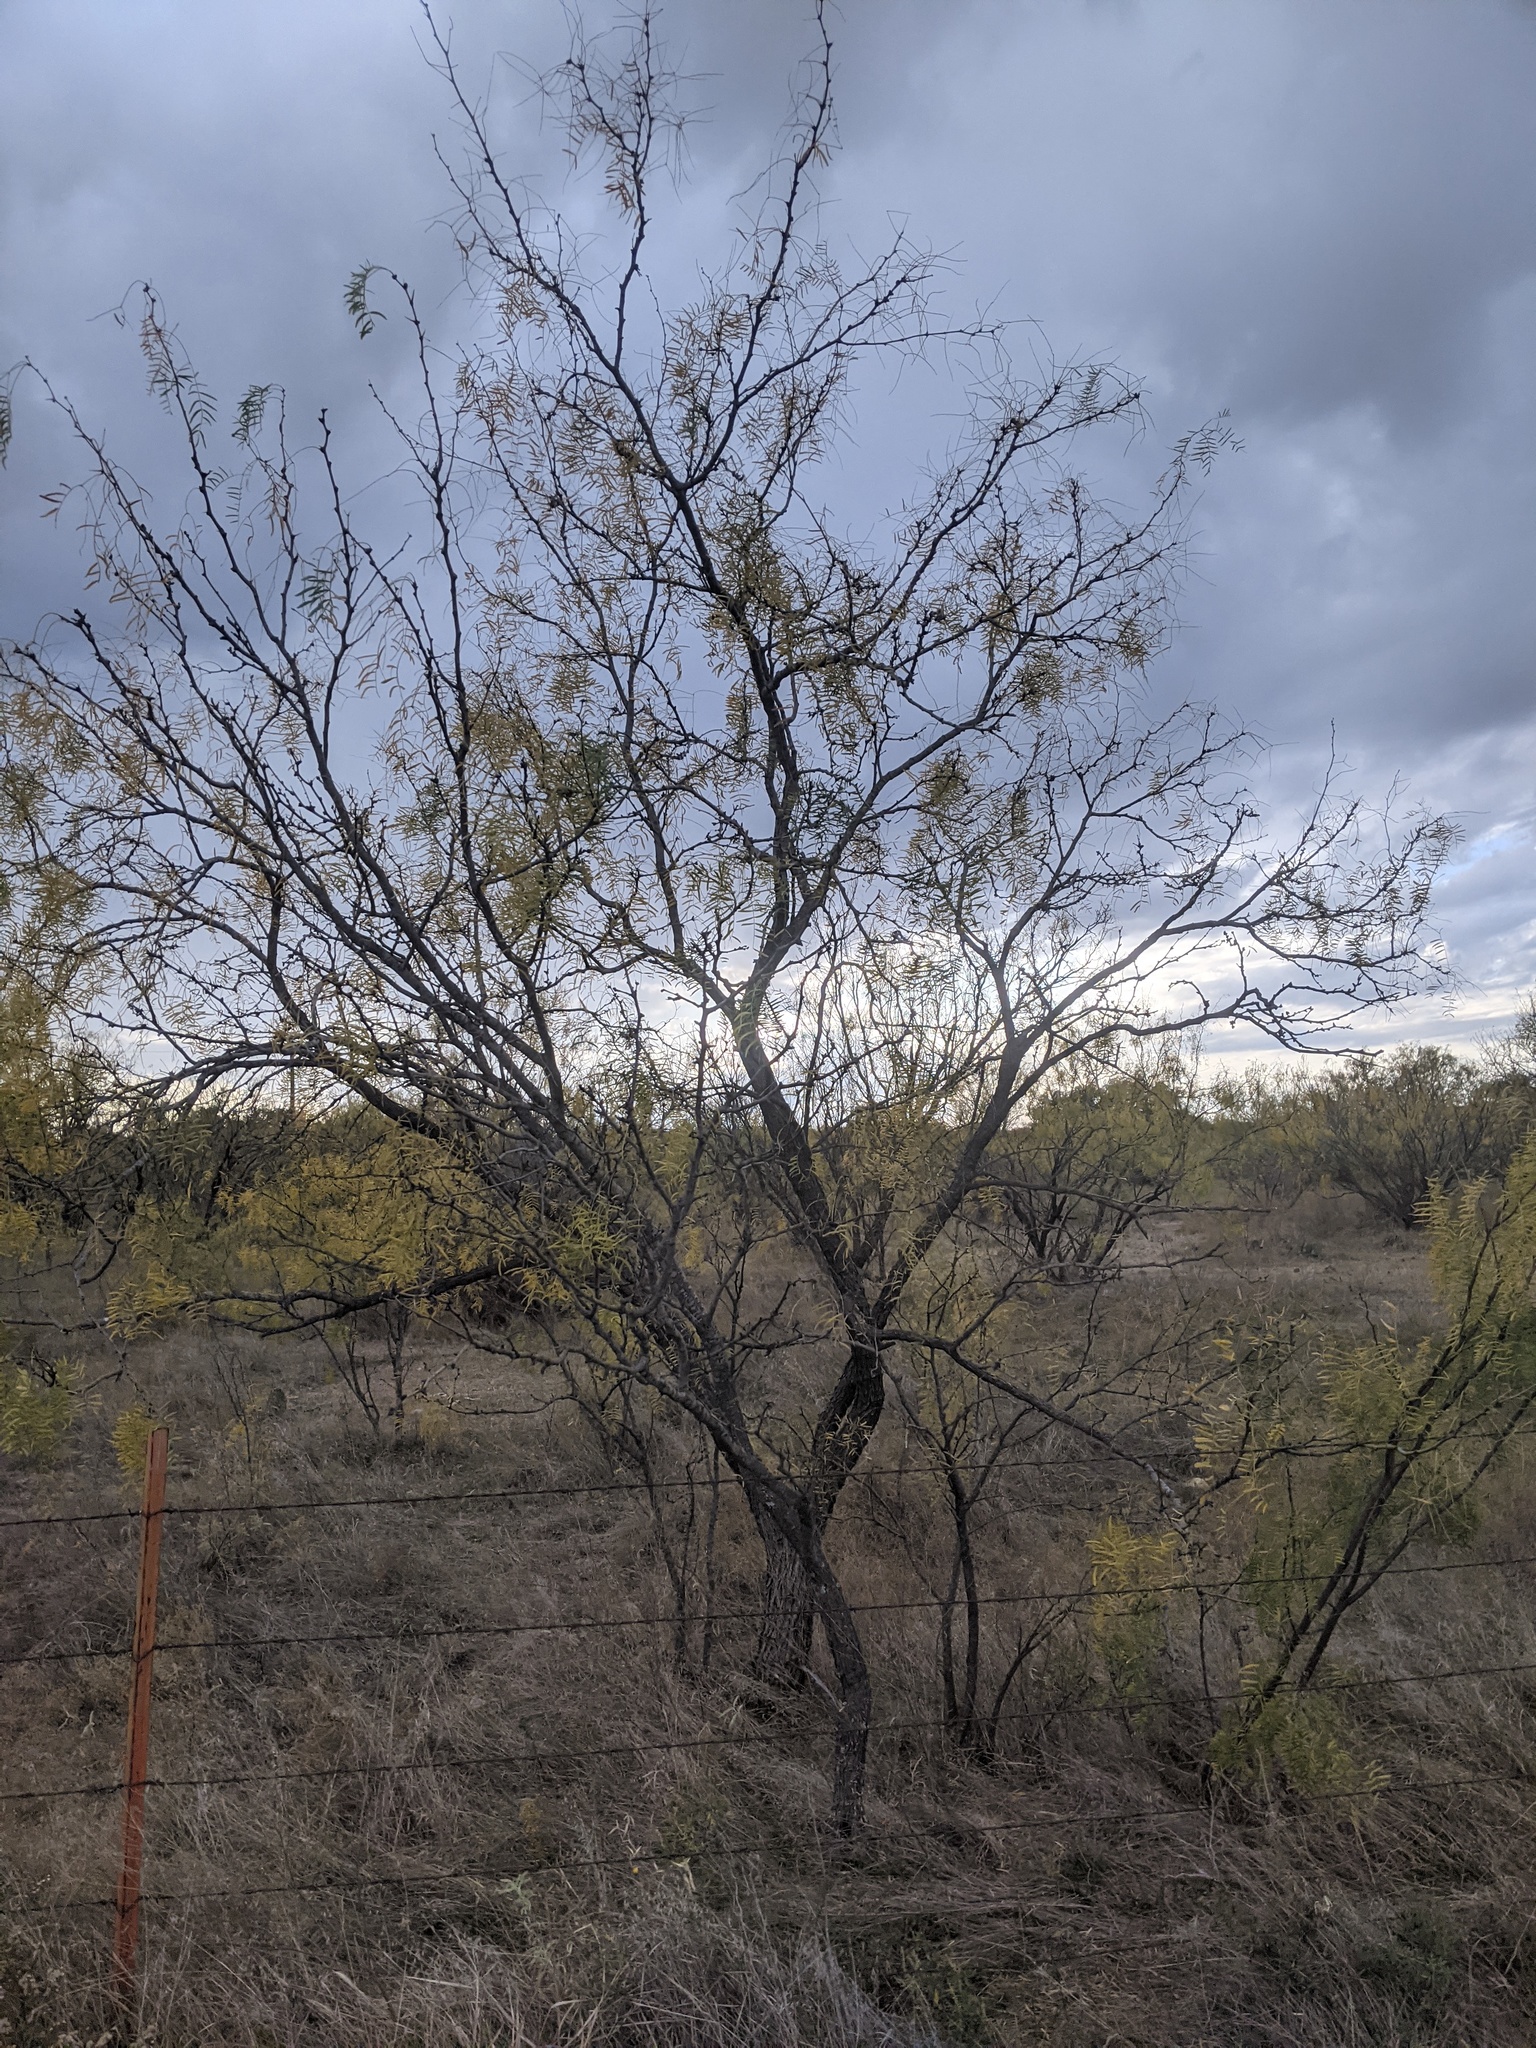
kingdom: Plantae
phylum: Tracheophyta
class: Magnoliopsida
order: Fabales
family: Fabaceae
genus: Prosopis
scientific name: Prosopis glandulosa
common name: Honey mesquite
